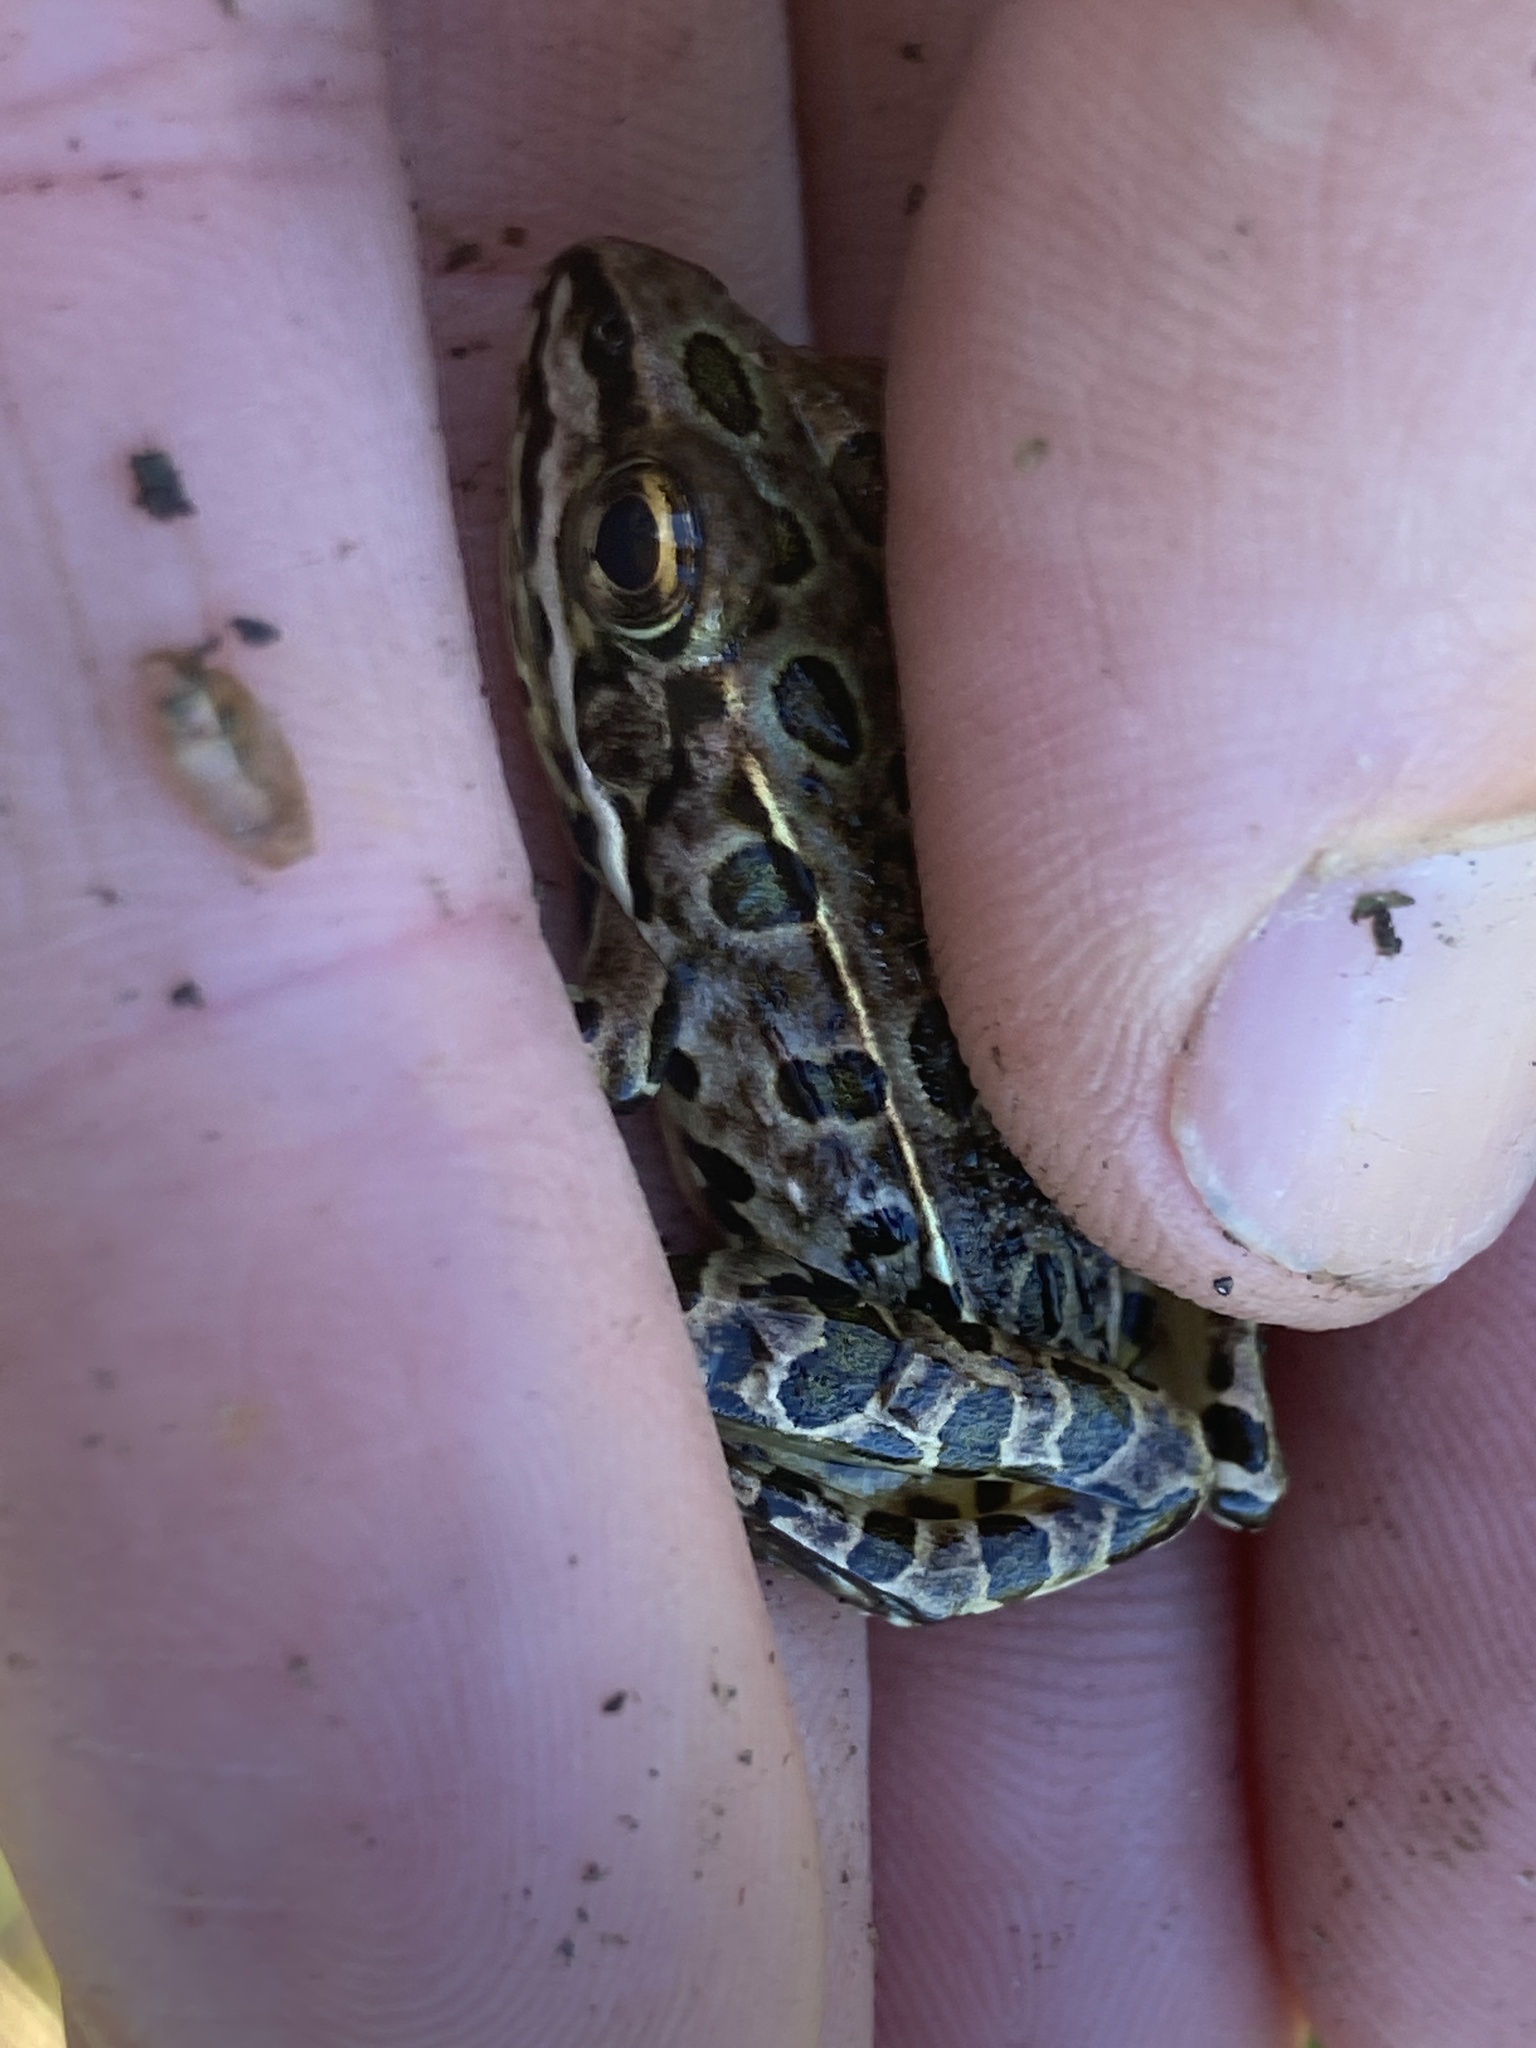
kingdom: Animalia
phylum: Chordata
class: Amphibia
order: Anura
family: Ranidae
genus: Lithobates
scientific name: Lithobates pipiens
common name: Northern leopard frog
